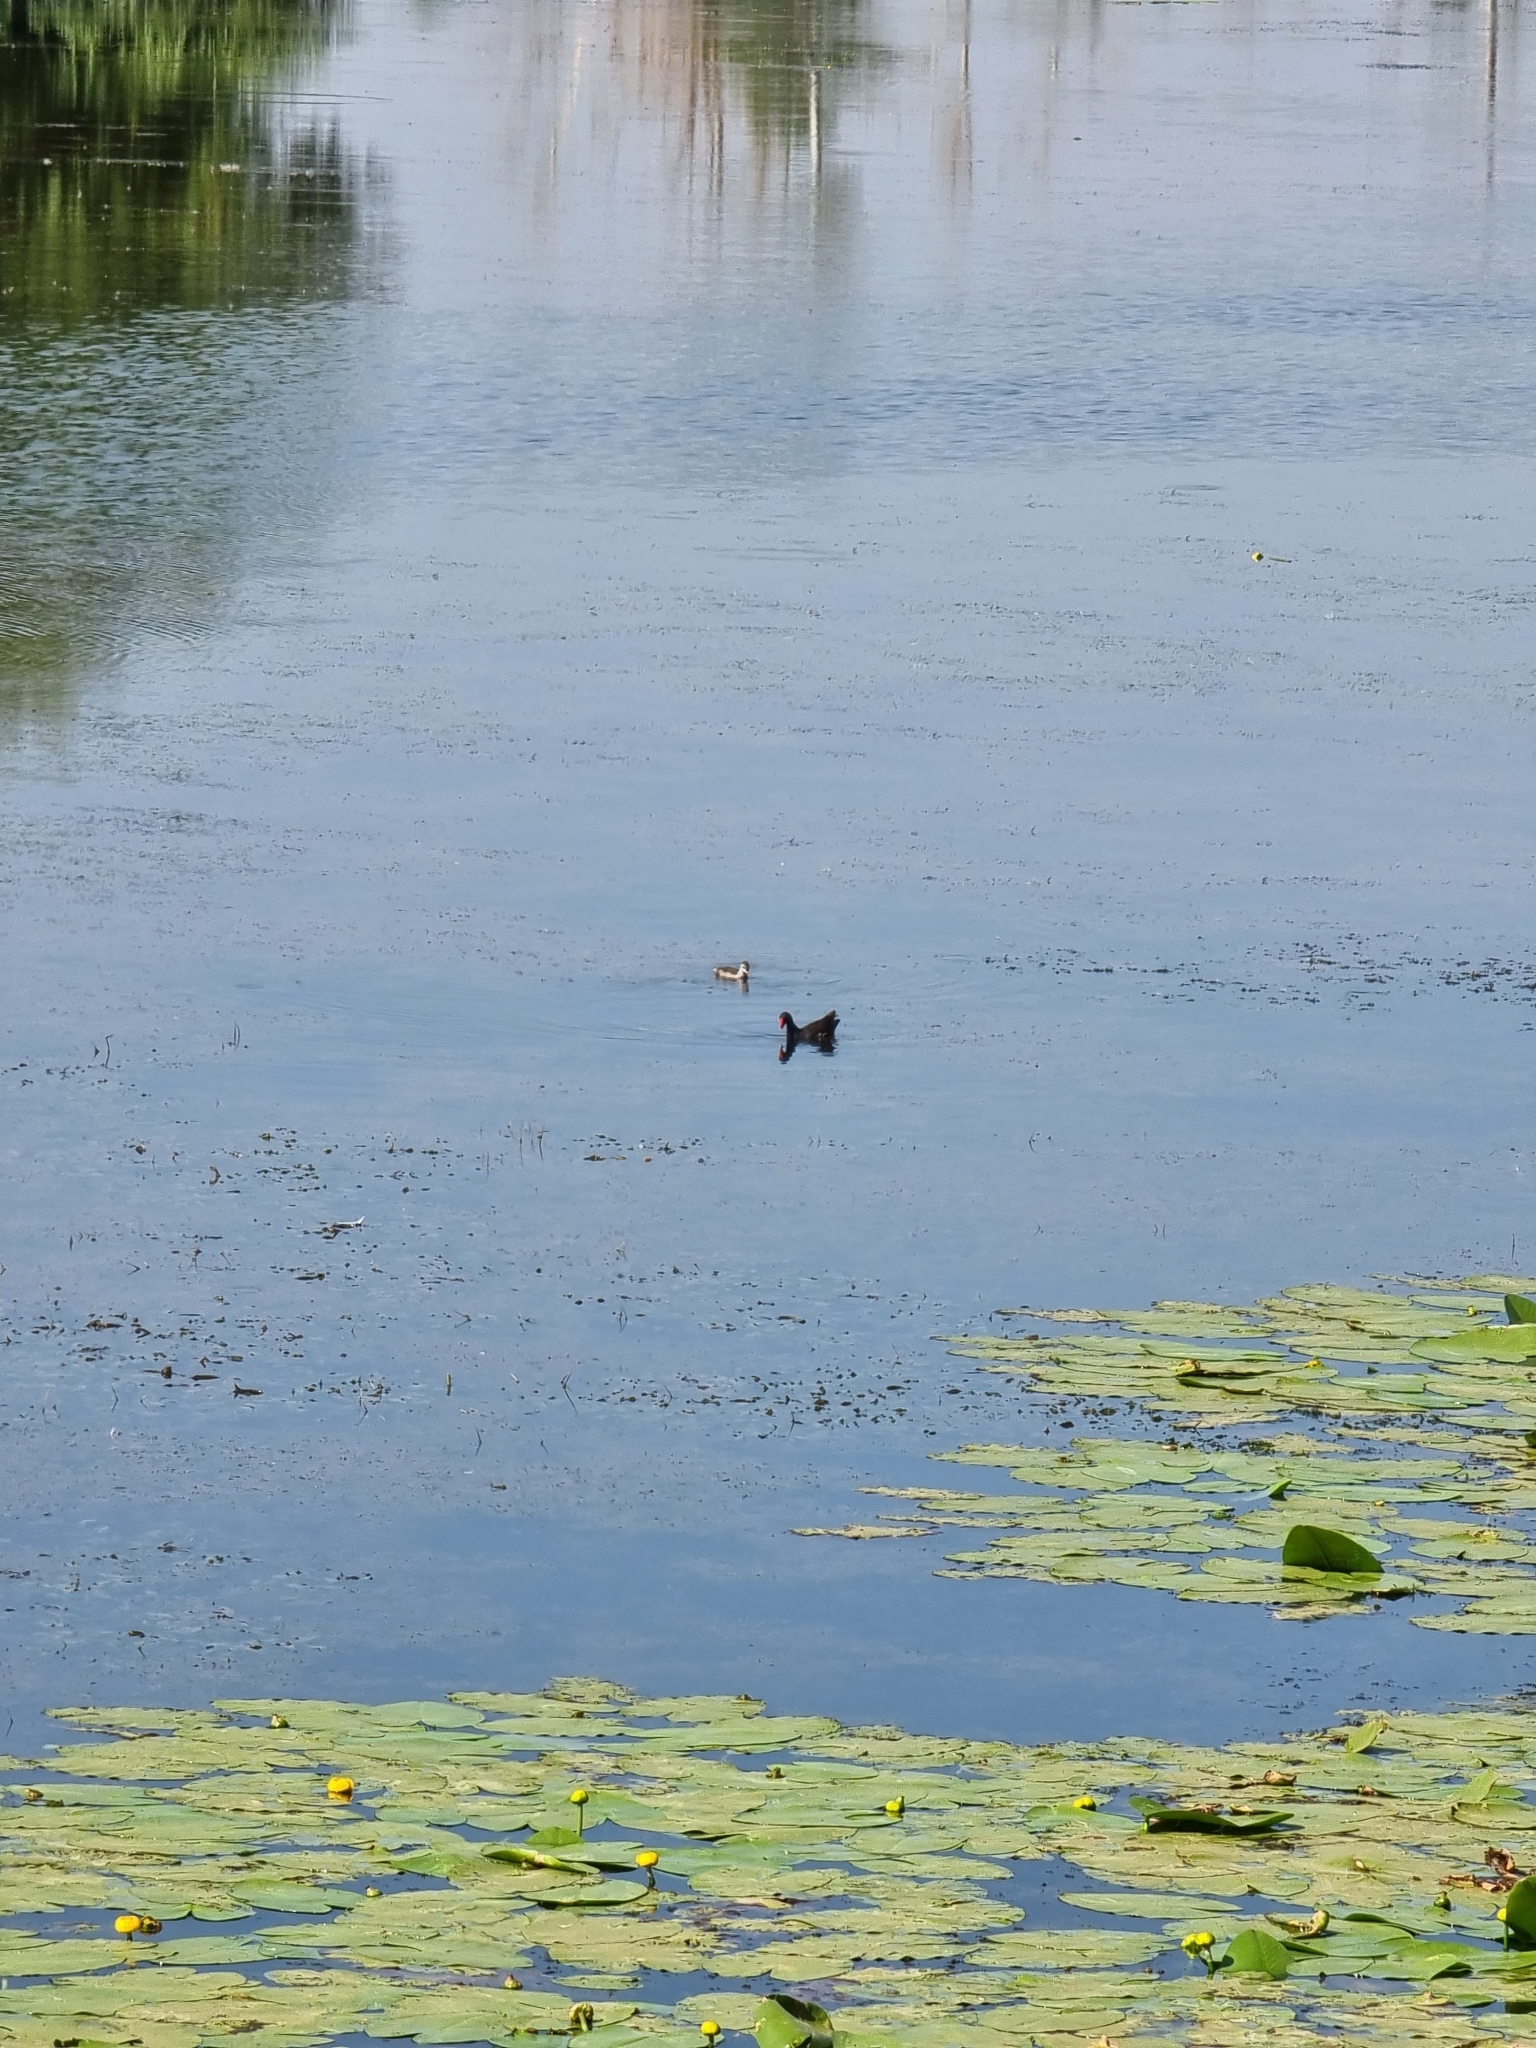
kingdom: Animalia
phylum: Chordata
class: Aves
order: Gruiformes
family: Rallidae
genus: Gallinula
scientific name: Gallinula chloropus
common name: Common moorhen
